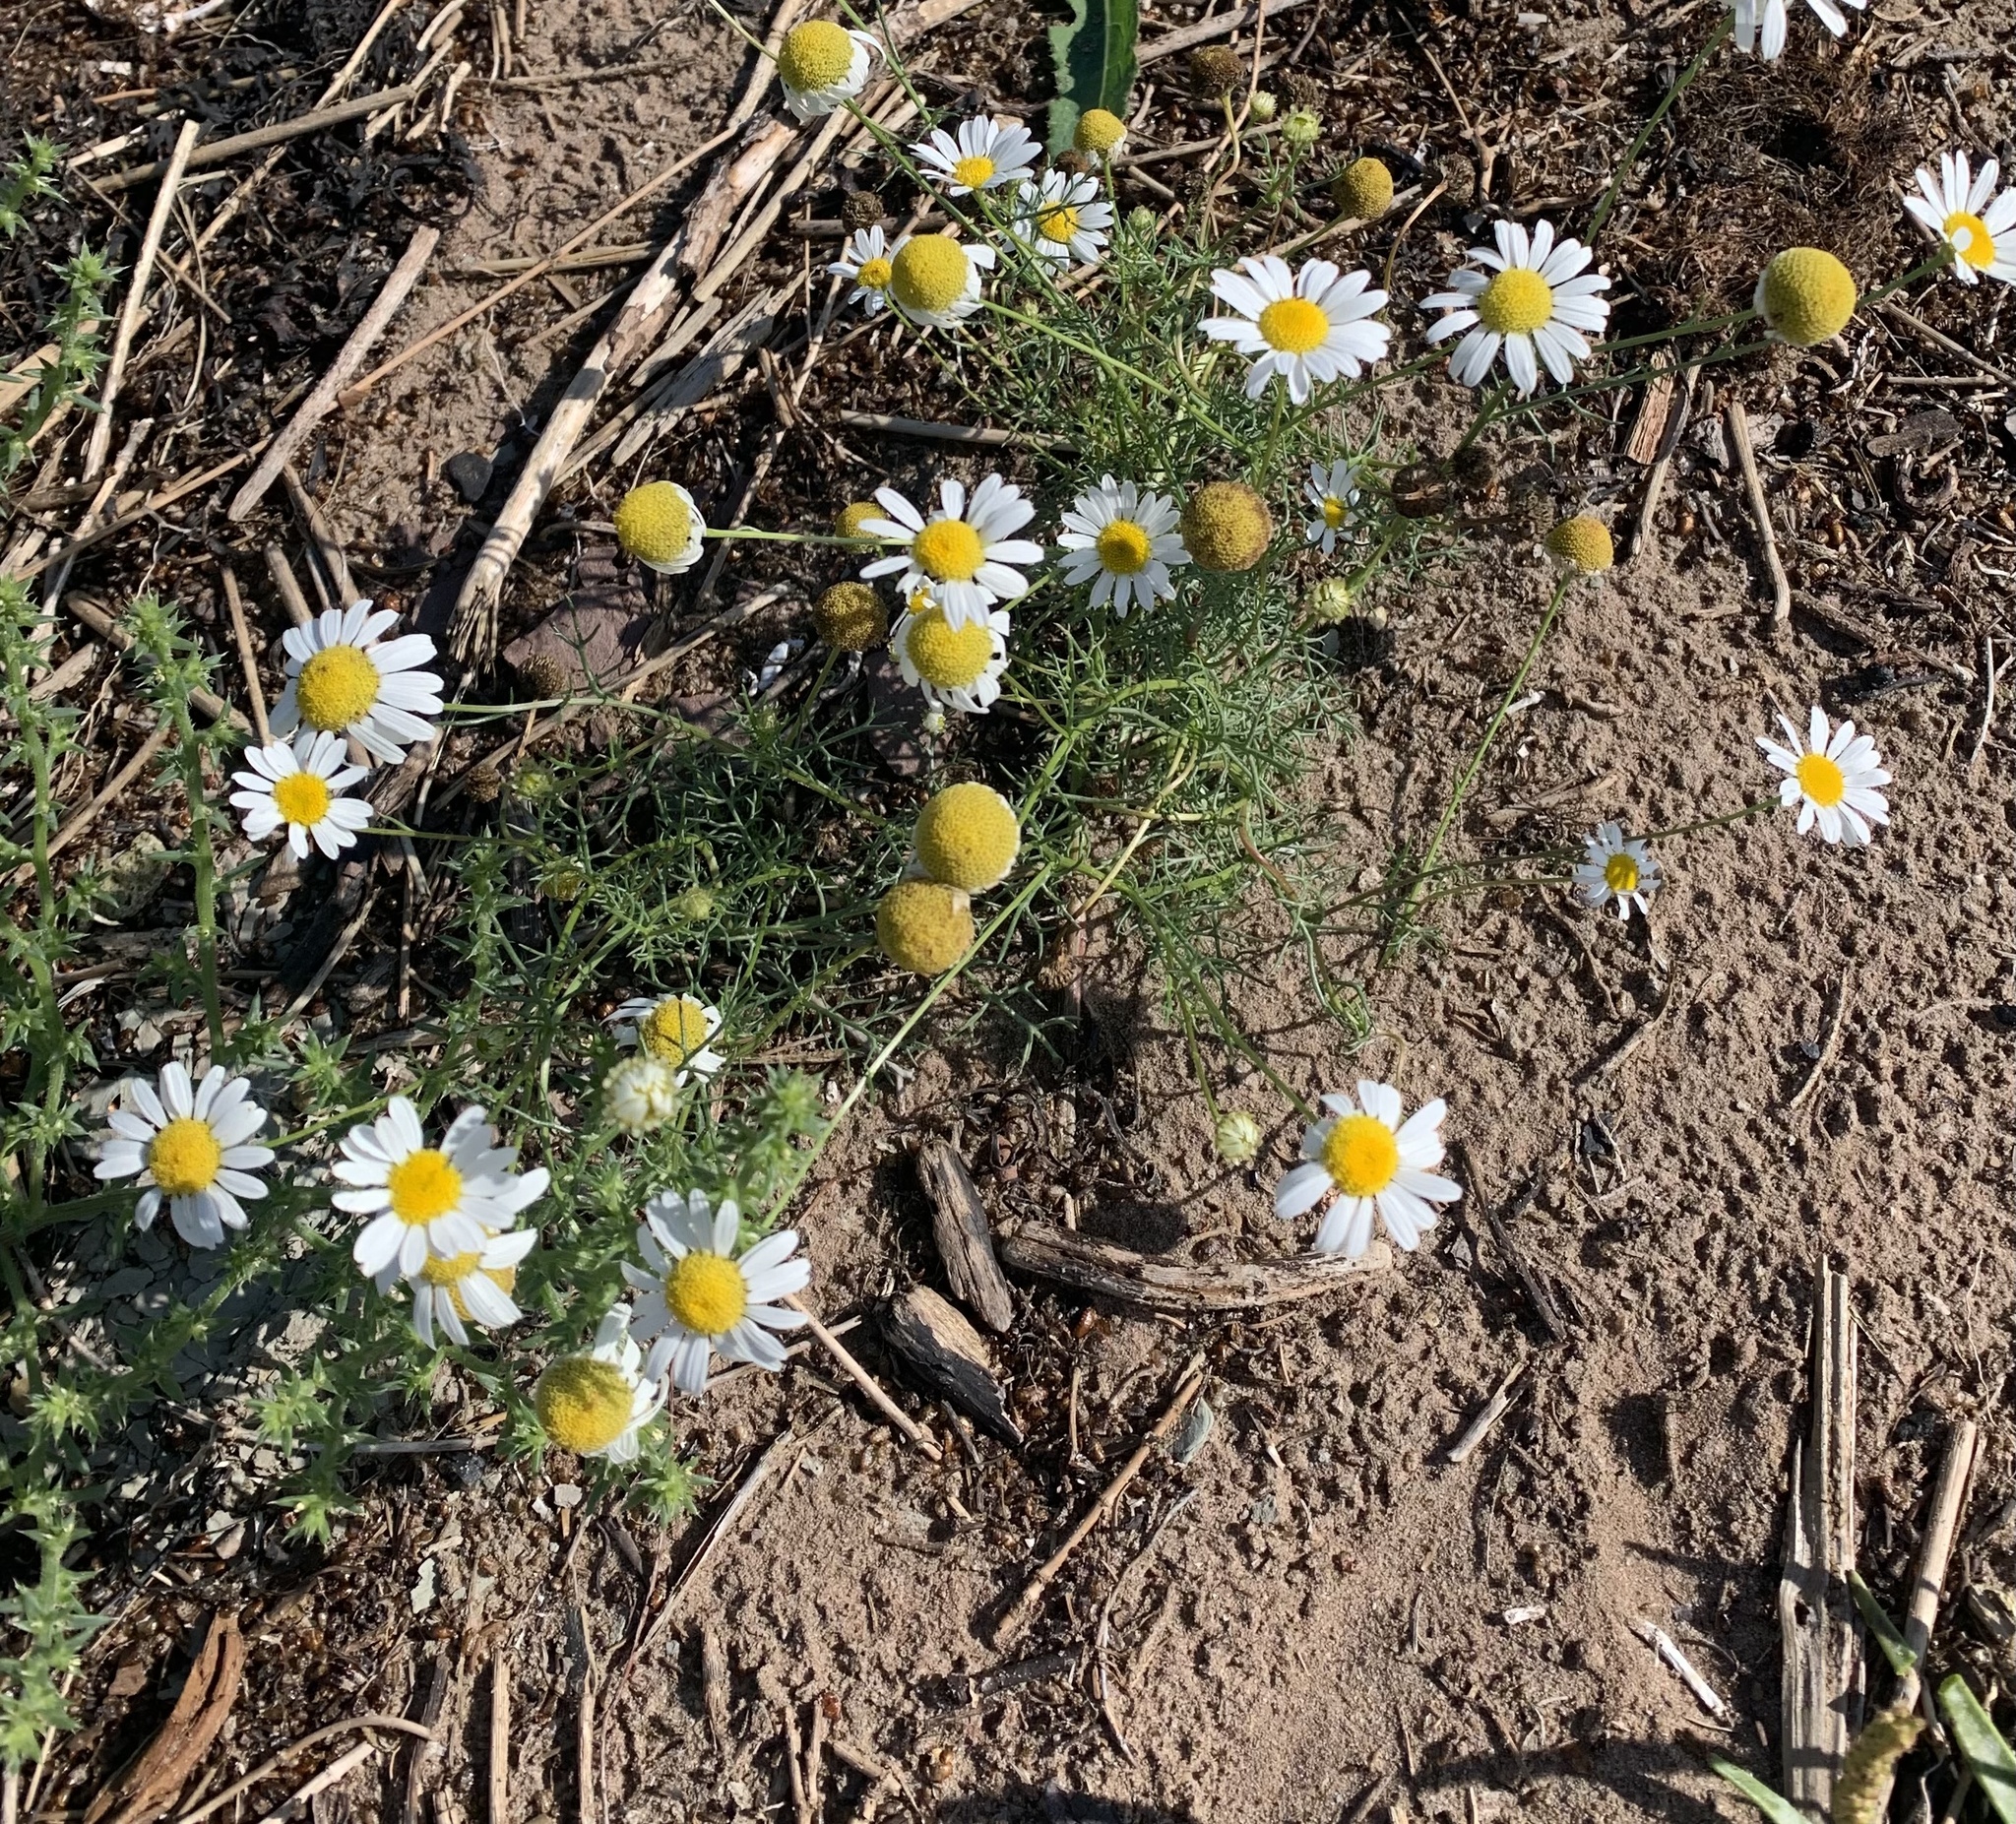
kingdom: Plantae
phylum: Tracheophyta
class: Magnoliopsida
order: Asterales
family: Asteraceae
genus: Matricaria
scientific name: Matricaria chamomilla
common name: Scented mayweed
